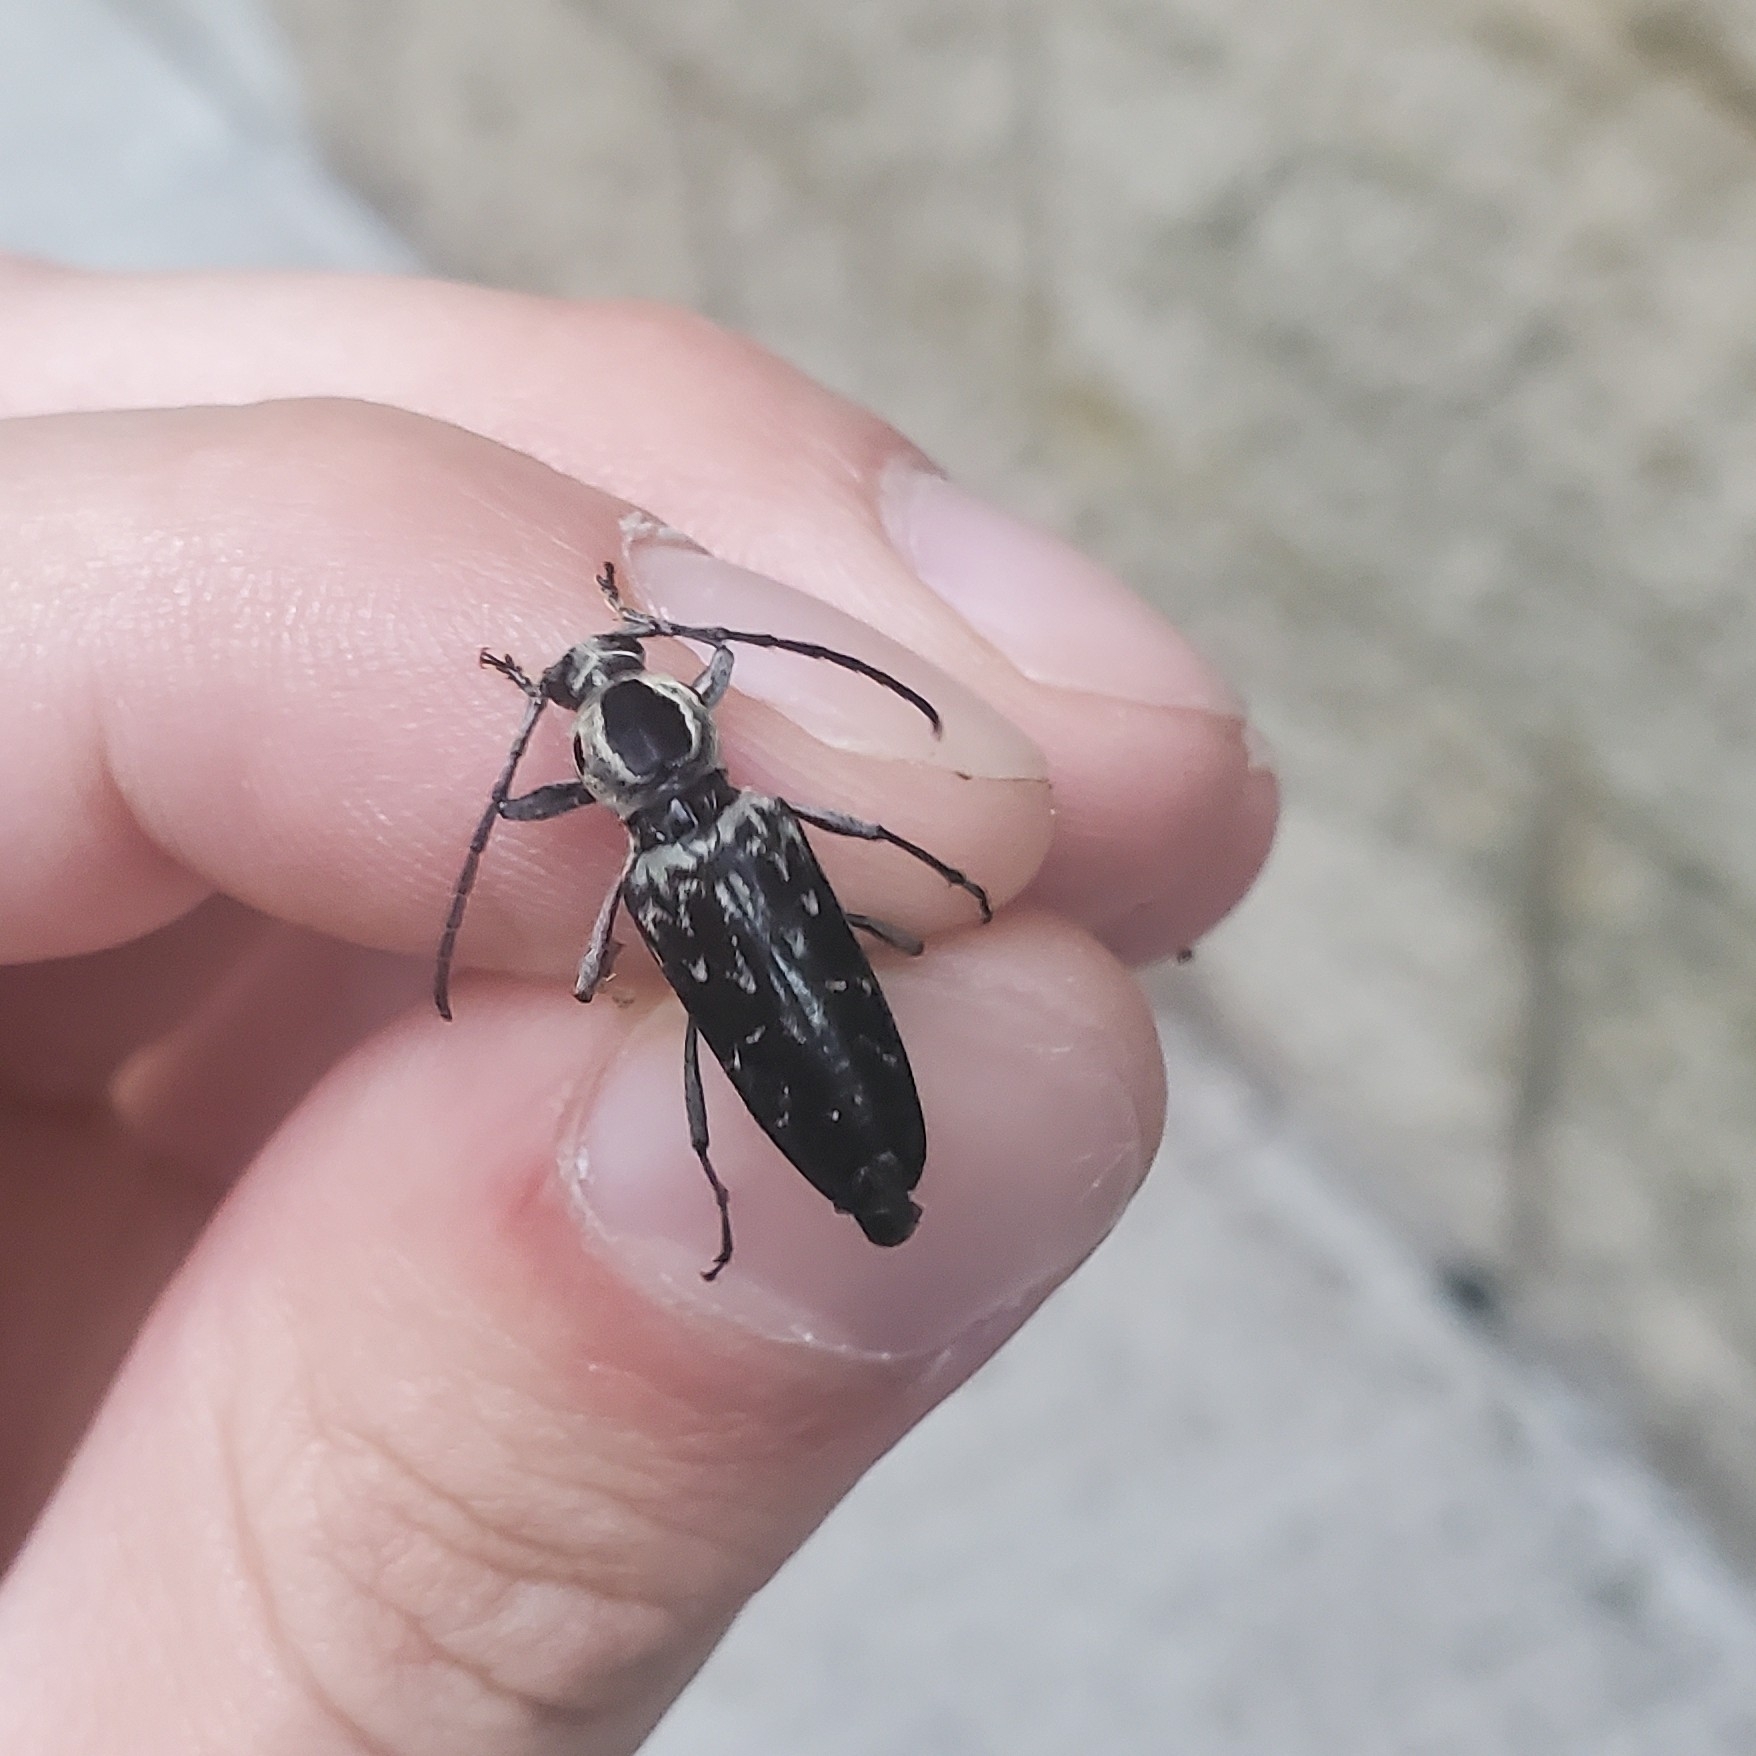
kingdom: Animalia
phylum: Arthropoda
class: Insecta
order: Coleoptera
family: Cerambycidae
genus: Sarosesthes
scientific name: Sarosesthes fulminans
